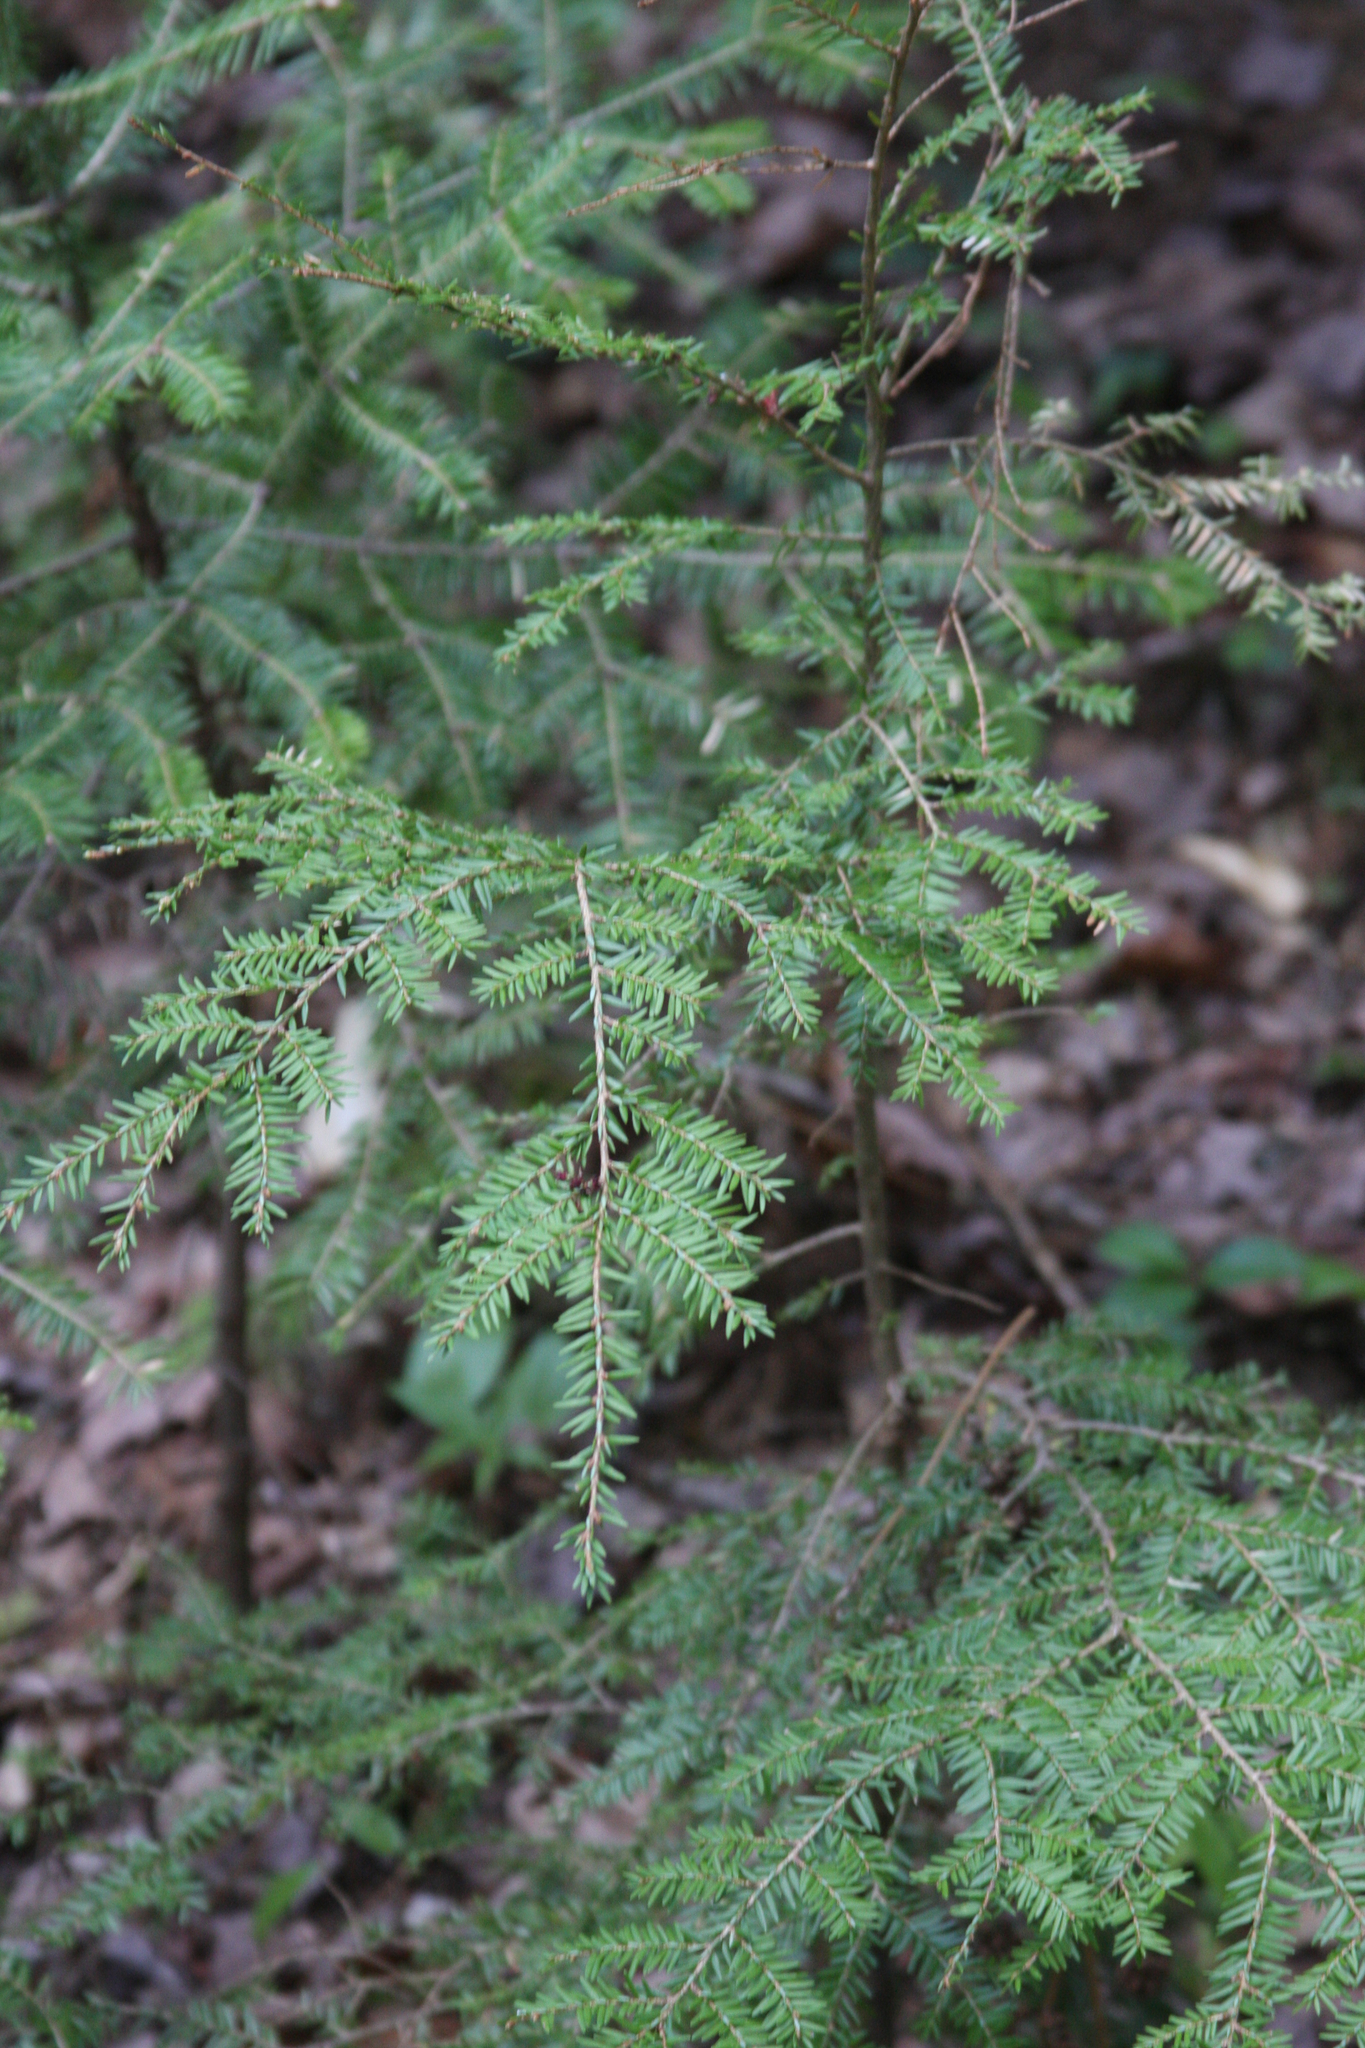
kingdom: Plantae
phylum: Tracheophyta
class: Pinopsida
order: Pinales
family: Pinaceae
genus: Tsuga
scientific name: Tsuga canadensis
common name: Eastern hemlock
